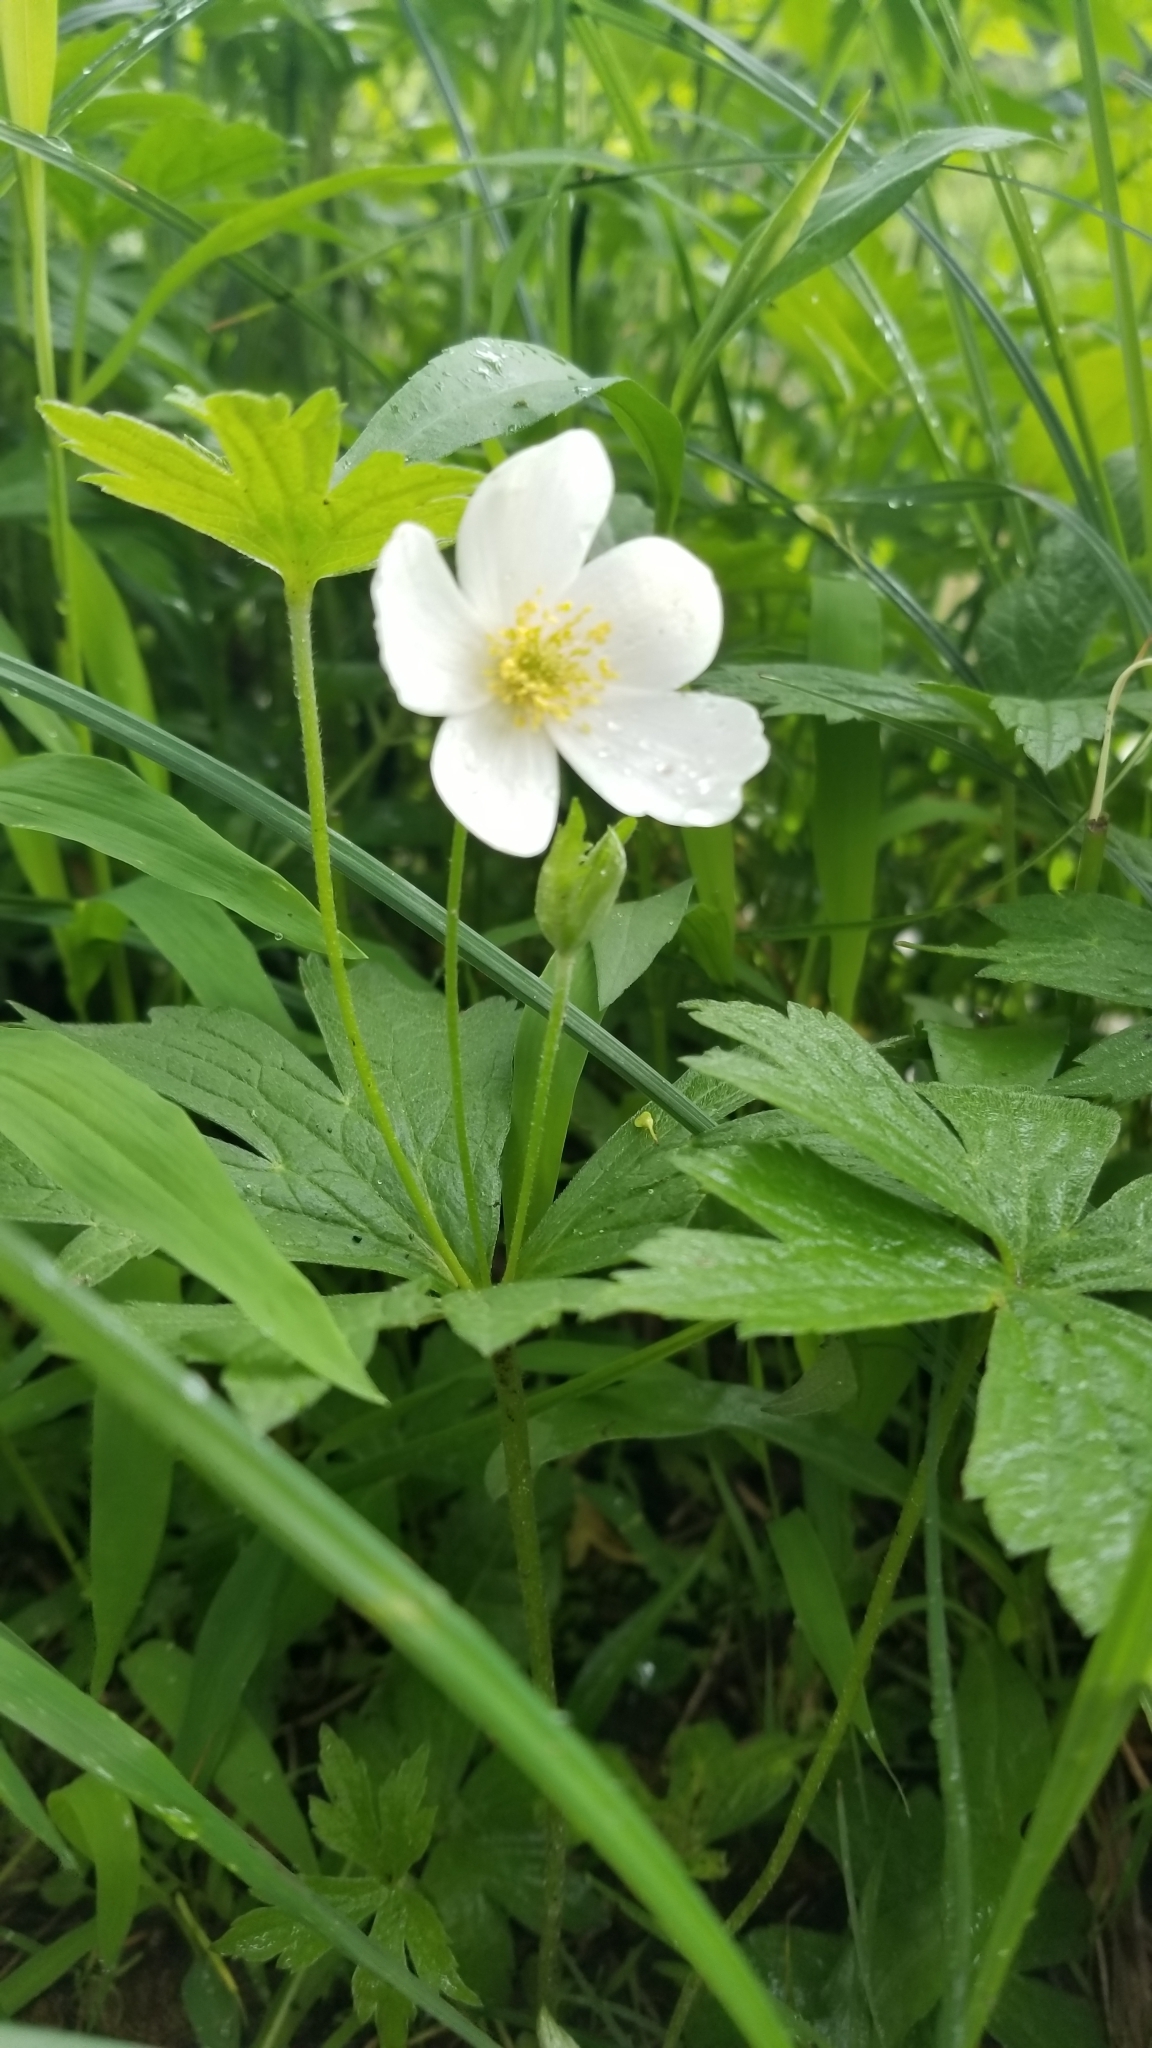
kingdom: Plantae
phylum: Tracheophyta
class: Magnoliopsida
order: Ranunculales
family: Ranunculaceae
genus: Anemonastrum
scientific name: Anemonastrum canadense
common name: Canada anemone
